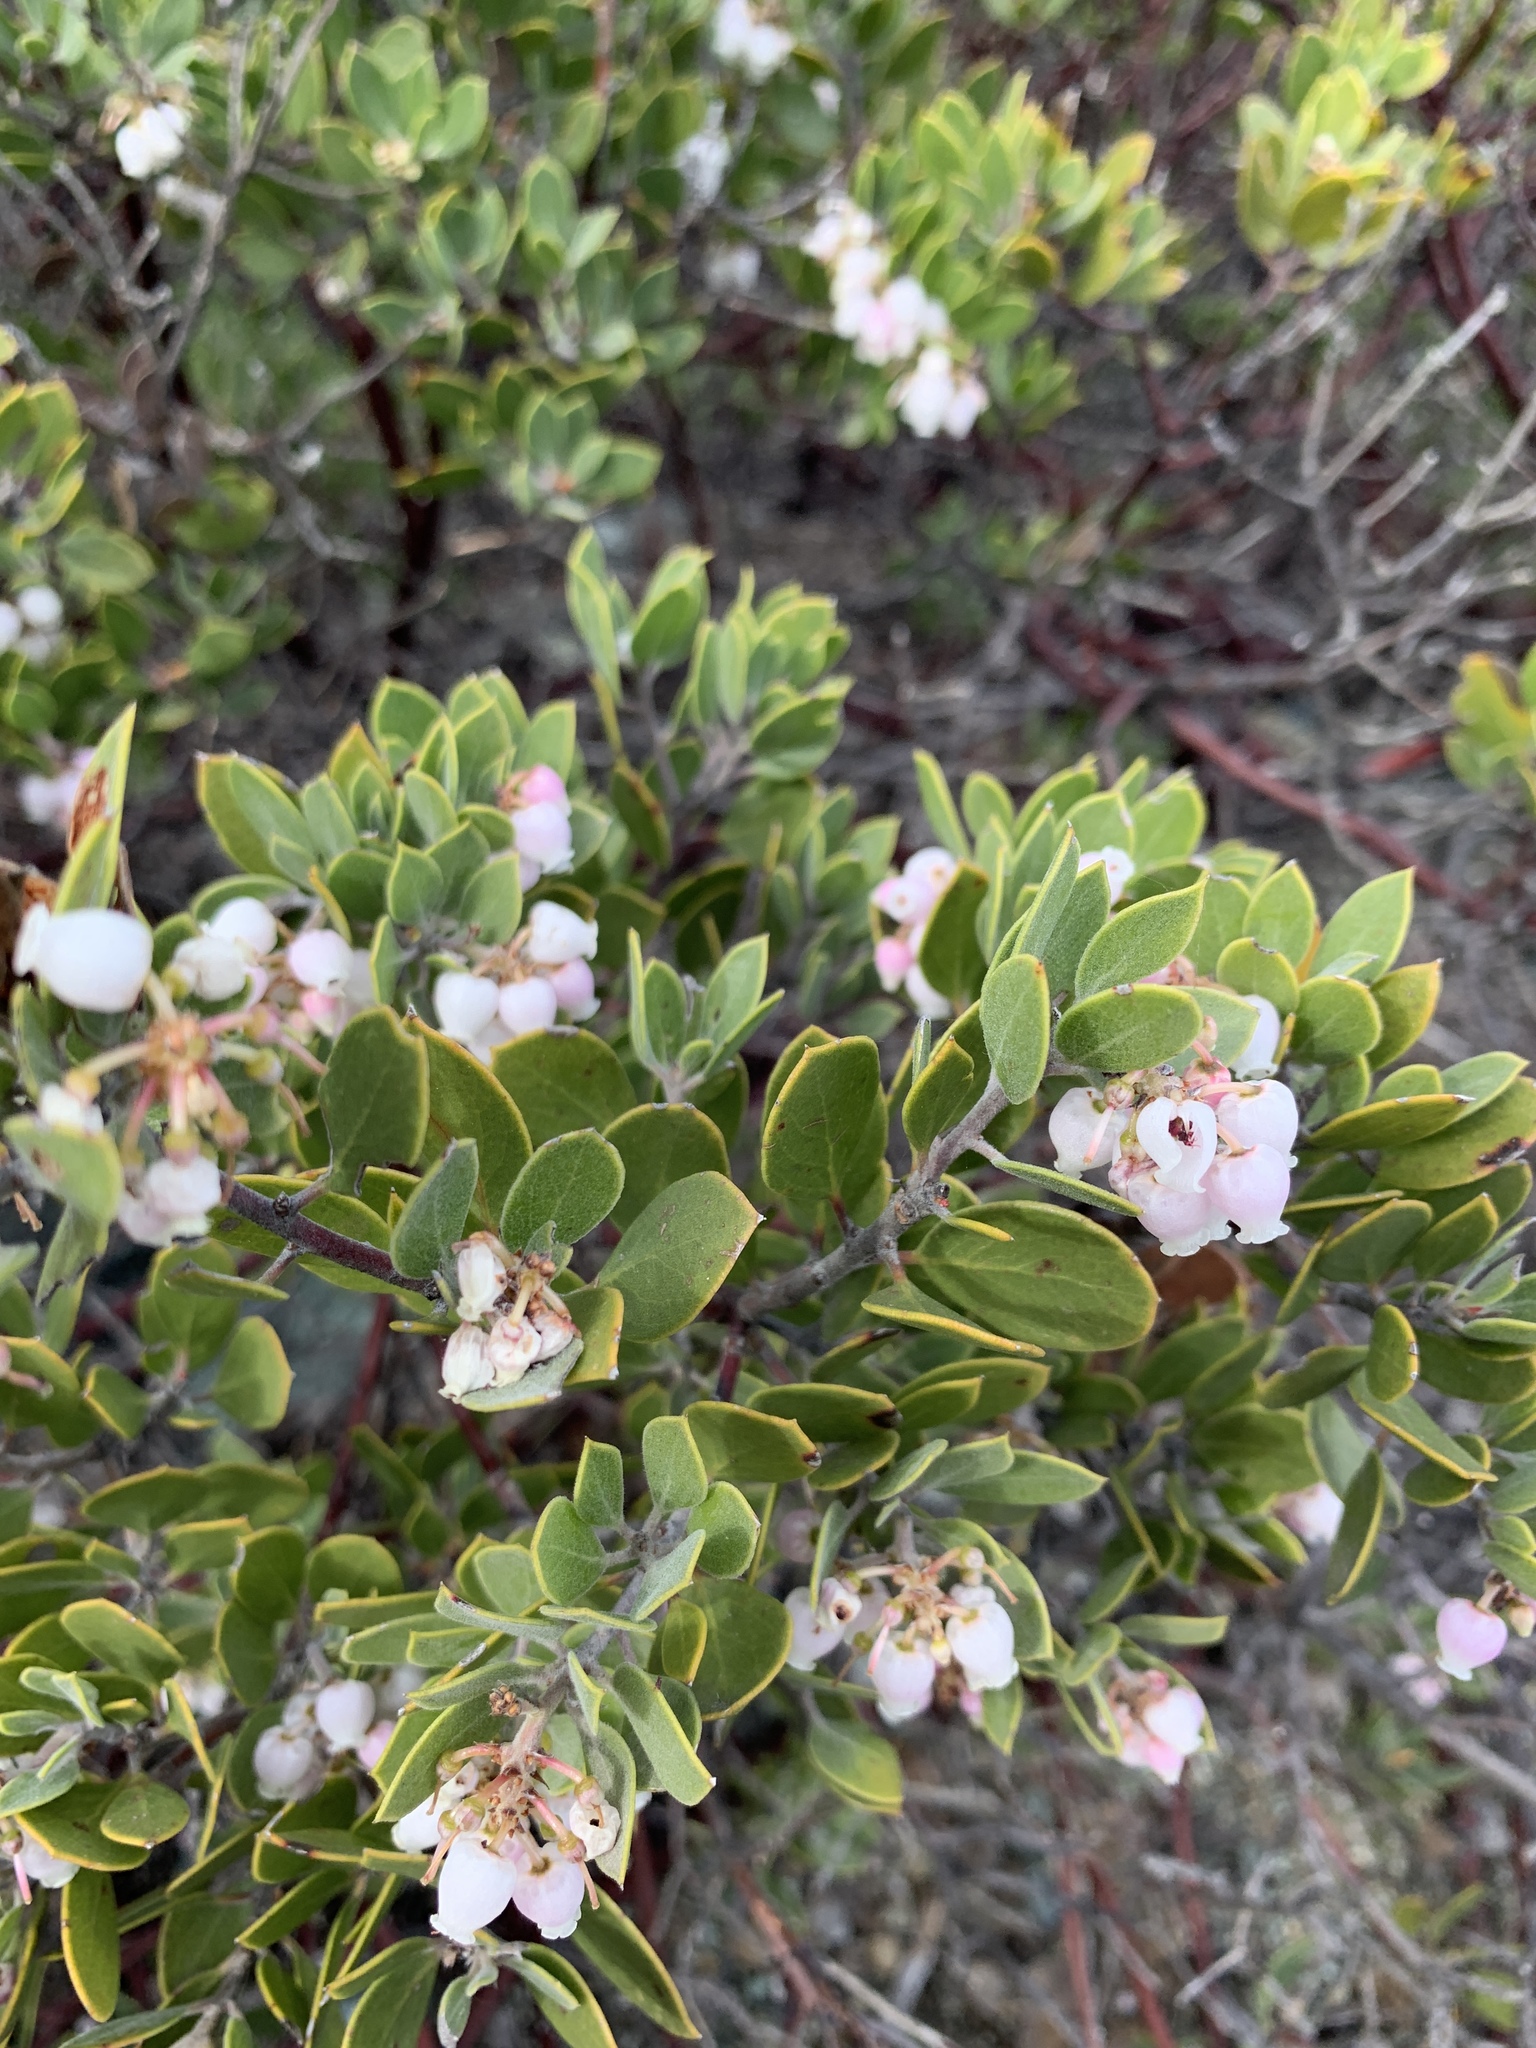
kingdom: Plantae
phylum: Tracheophyta
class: Magnoliopsida
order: Ericales
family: Ericaceae
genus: Arctostaphylos
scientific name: Arctostaphylos montana
